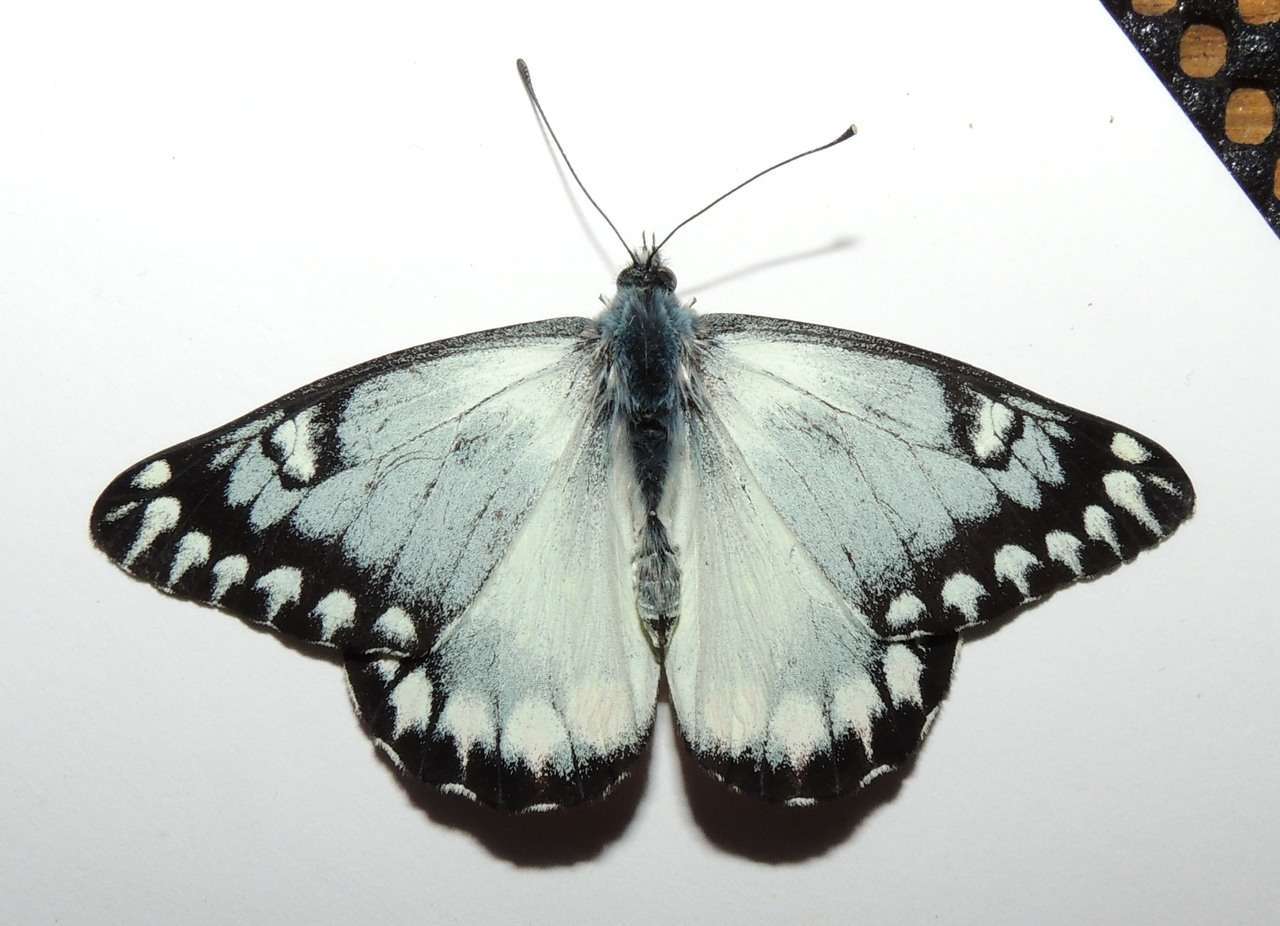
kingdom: Animalia
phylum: Arthropoda
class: Insecta
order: Lepidoptera
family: Pieridae
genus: Delias
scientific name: Delias aganippe
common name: Red-spotted jezebel
